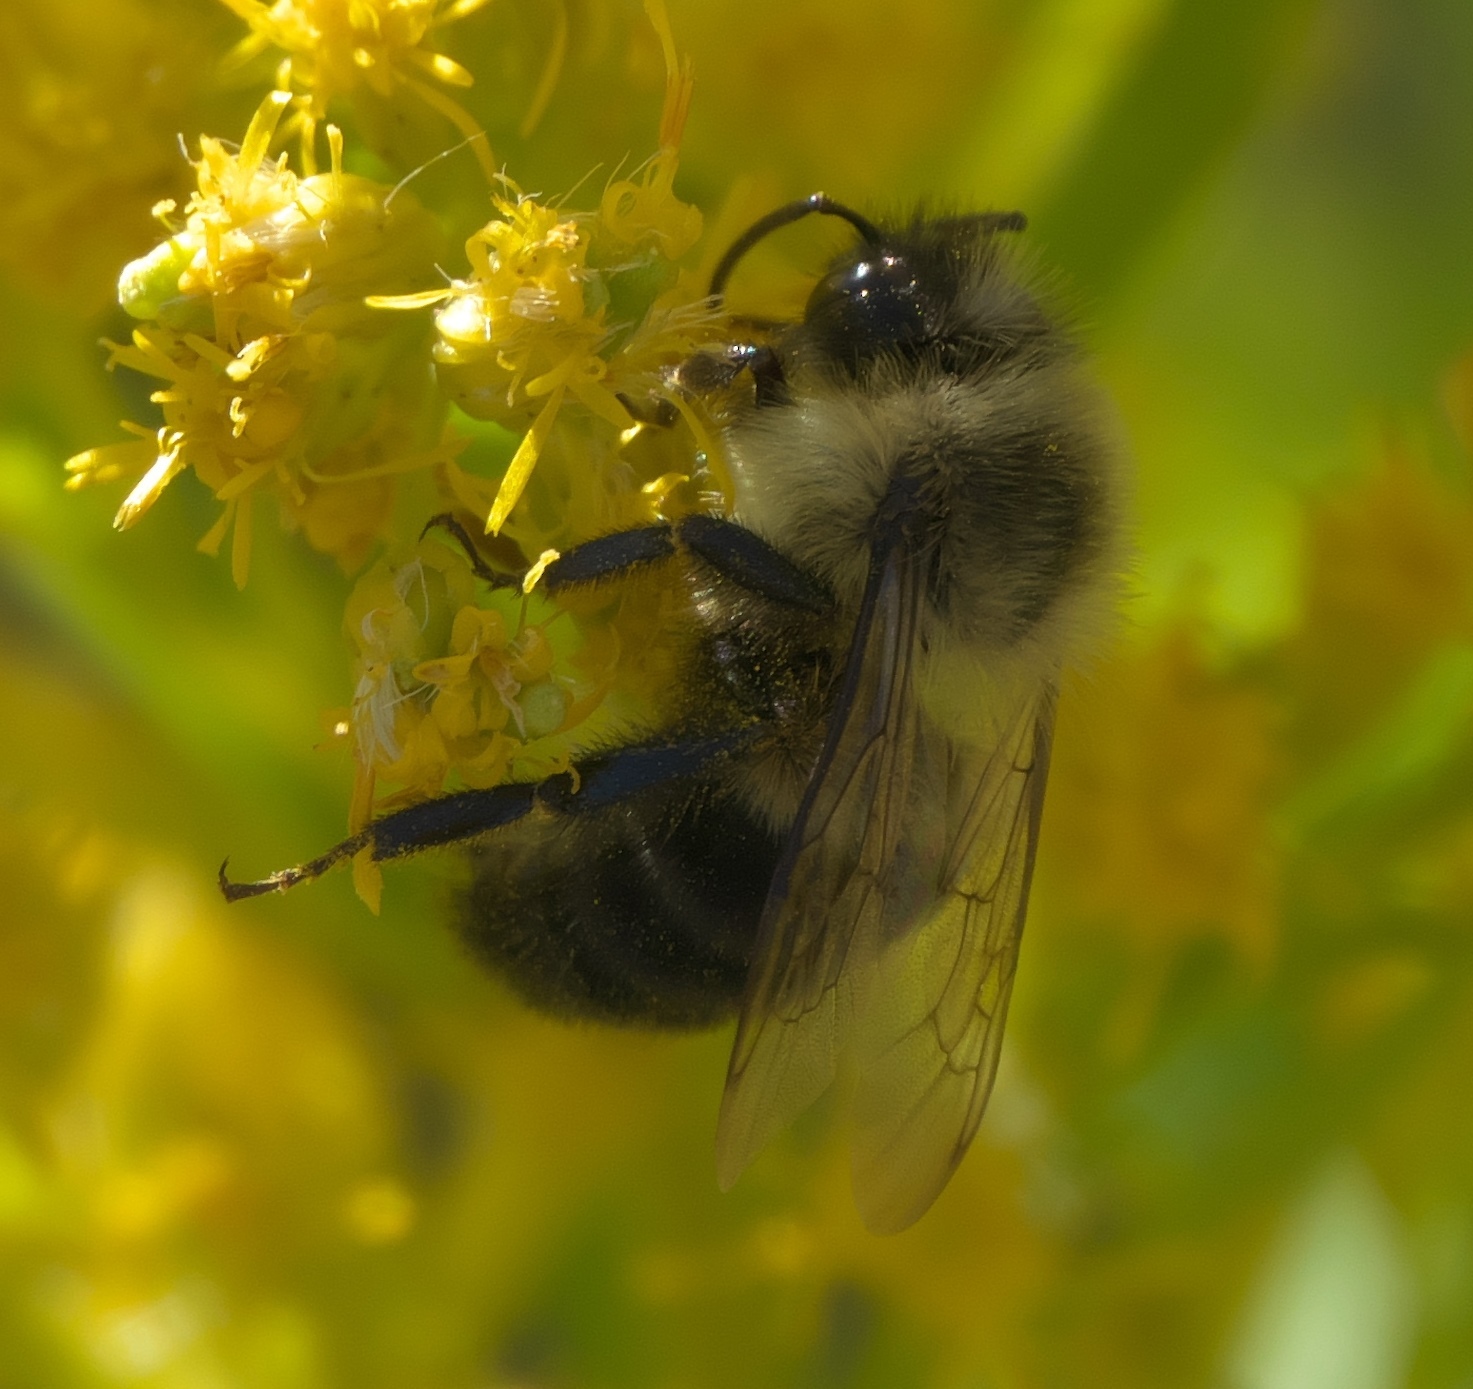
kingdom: Animalia
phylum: Arthropoda
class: Insecta
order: Hymenoptera
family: Apidae
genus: Bombus
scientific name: Bombus impatiens
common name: Common eastern bumble bee
